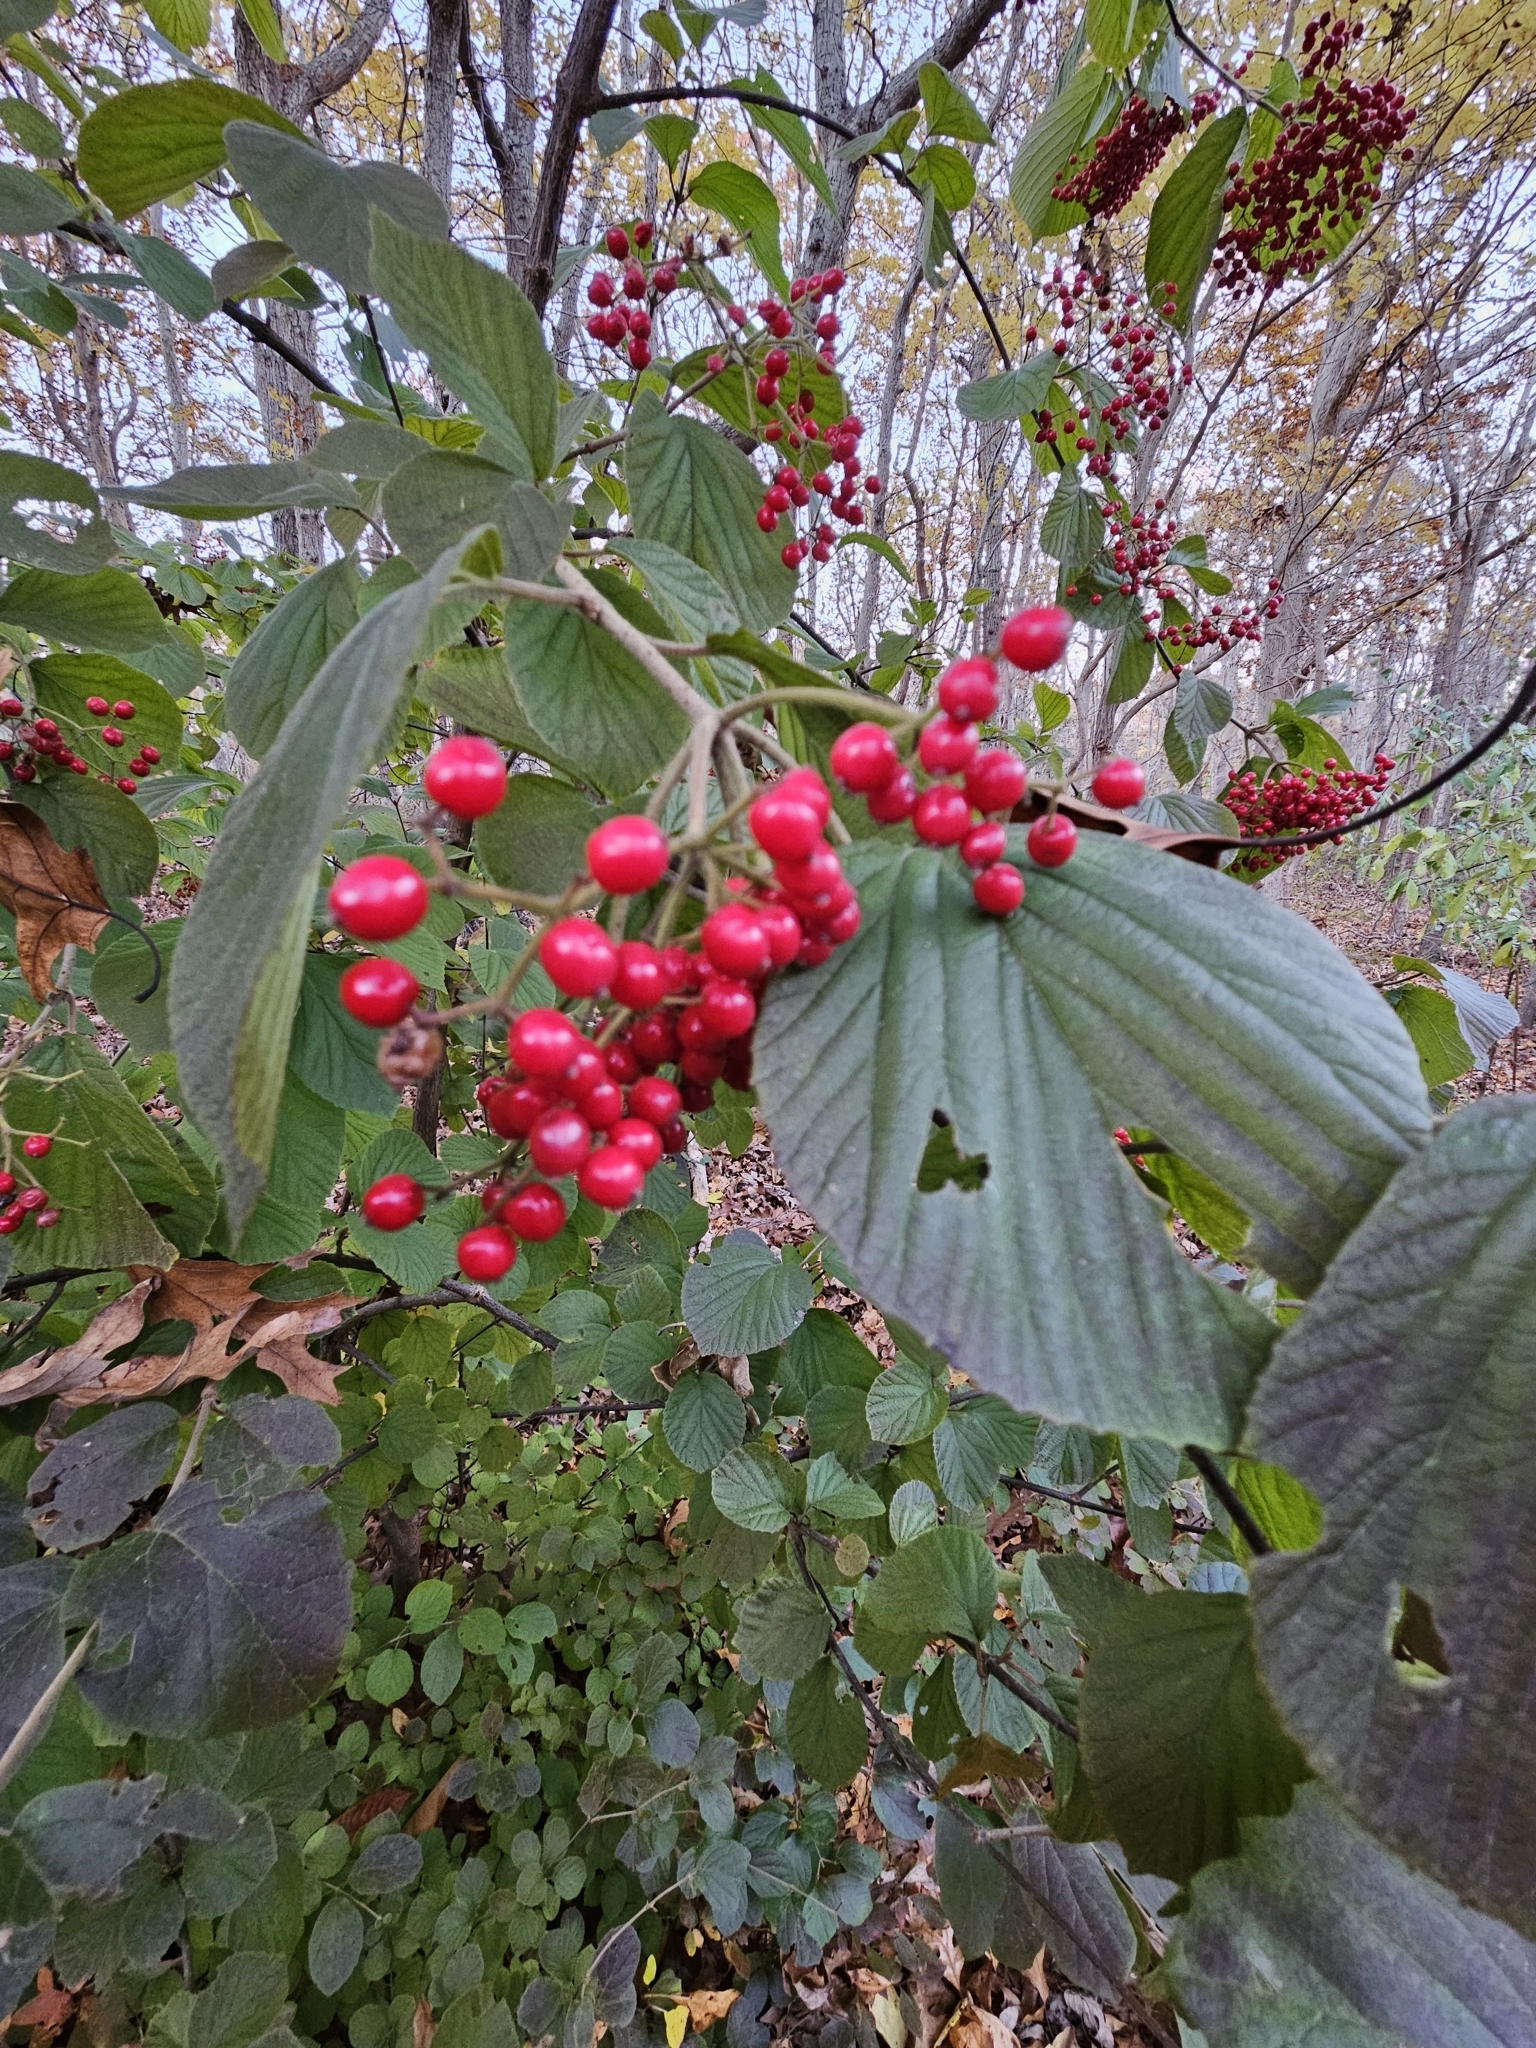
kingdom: Plantae
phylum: Tracheophyta
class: Magnoliopsida
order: Dipsacales
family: Viburnaceae
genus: Viburnum
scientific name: Viburnum dilatatum
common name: Linden arrowwood
